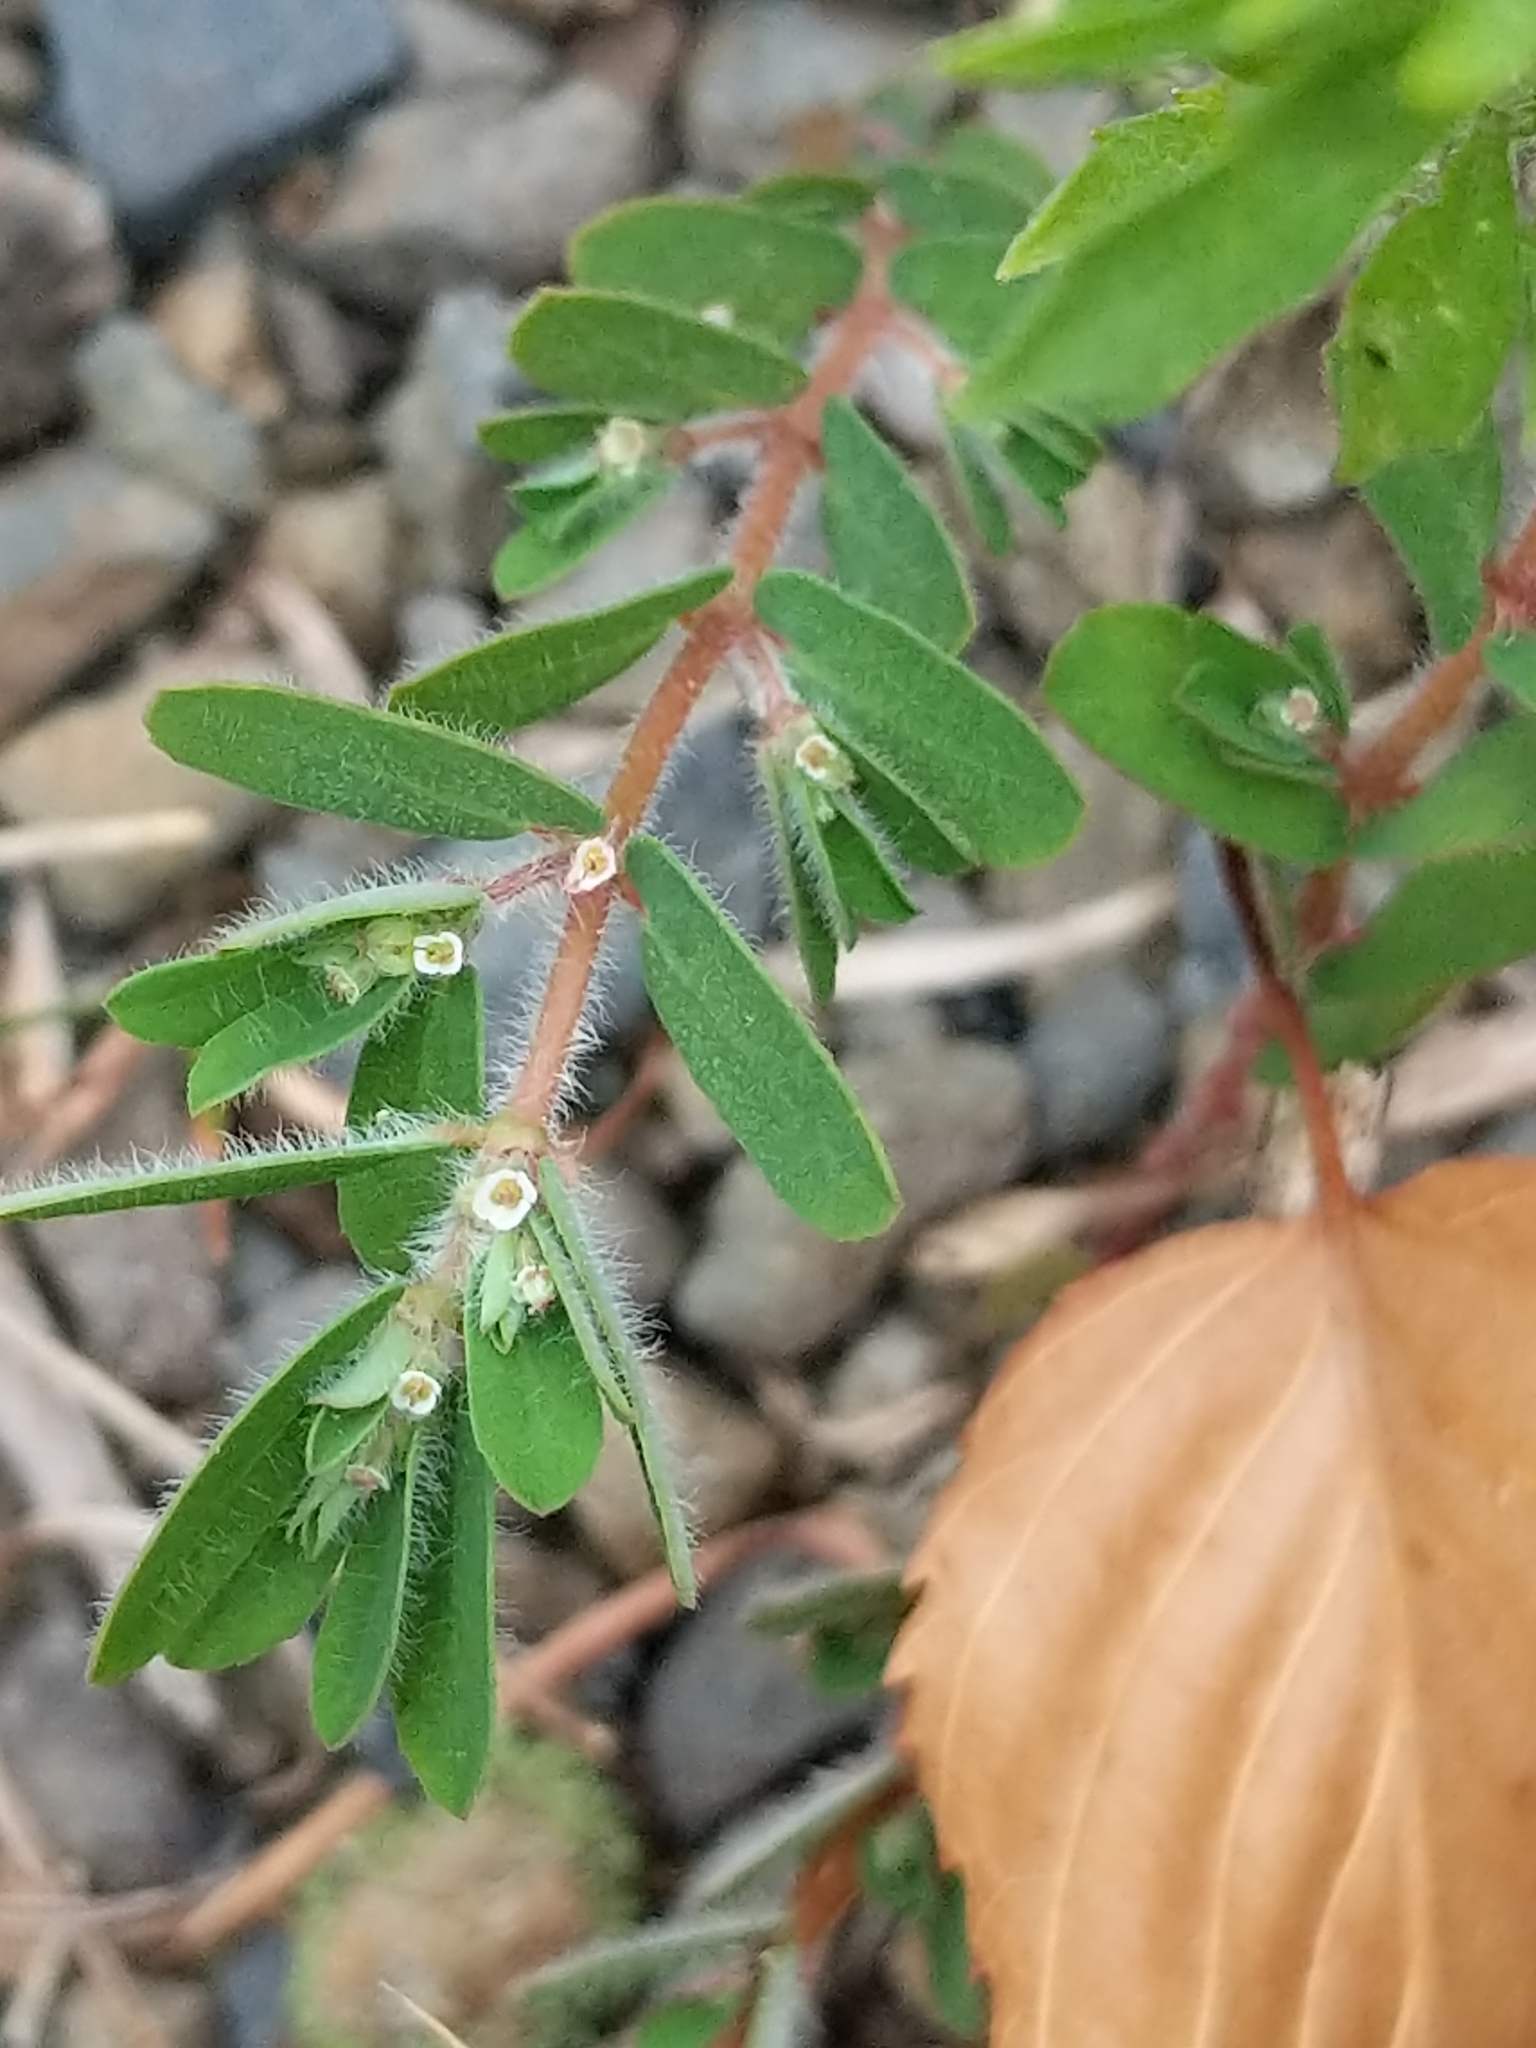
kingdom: Plantae
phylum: Tracheophyta
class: Magnoliopsida
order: Malpighiales
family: Euphorbiaceae
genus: Euphorbia
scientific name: Euphorbia maculata
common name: Spotted spurge
